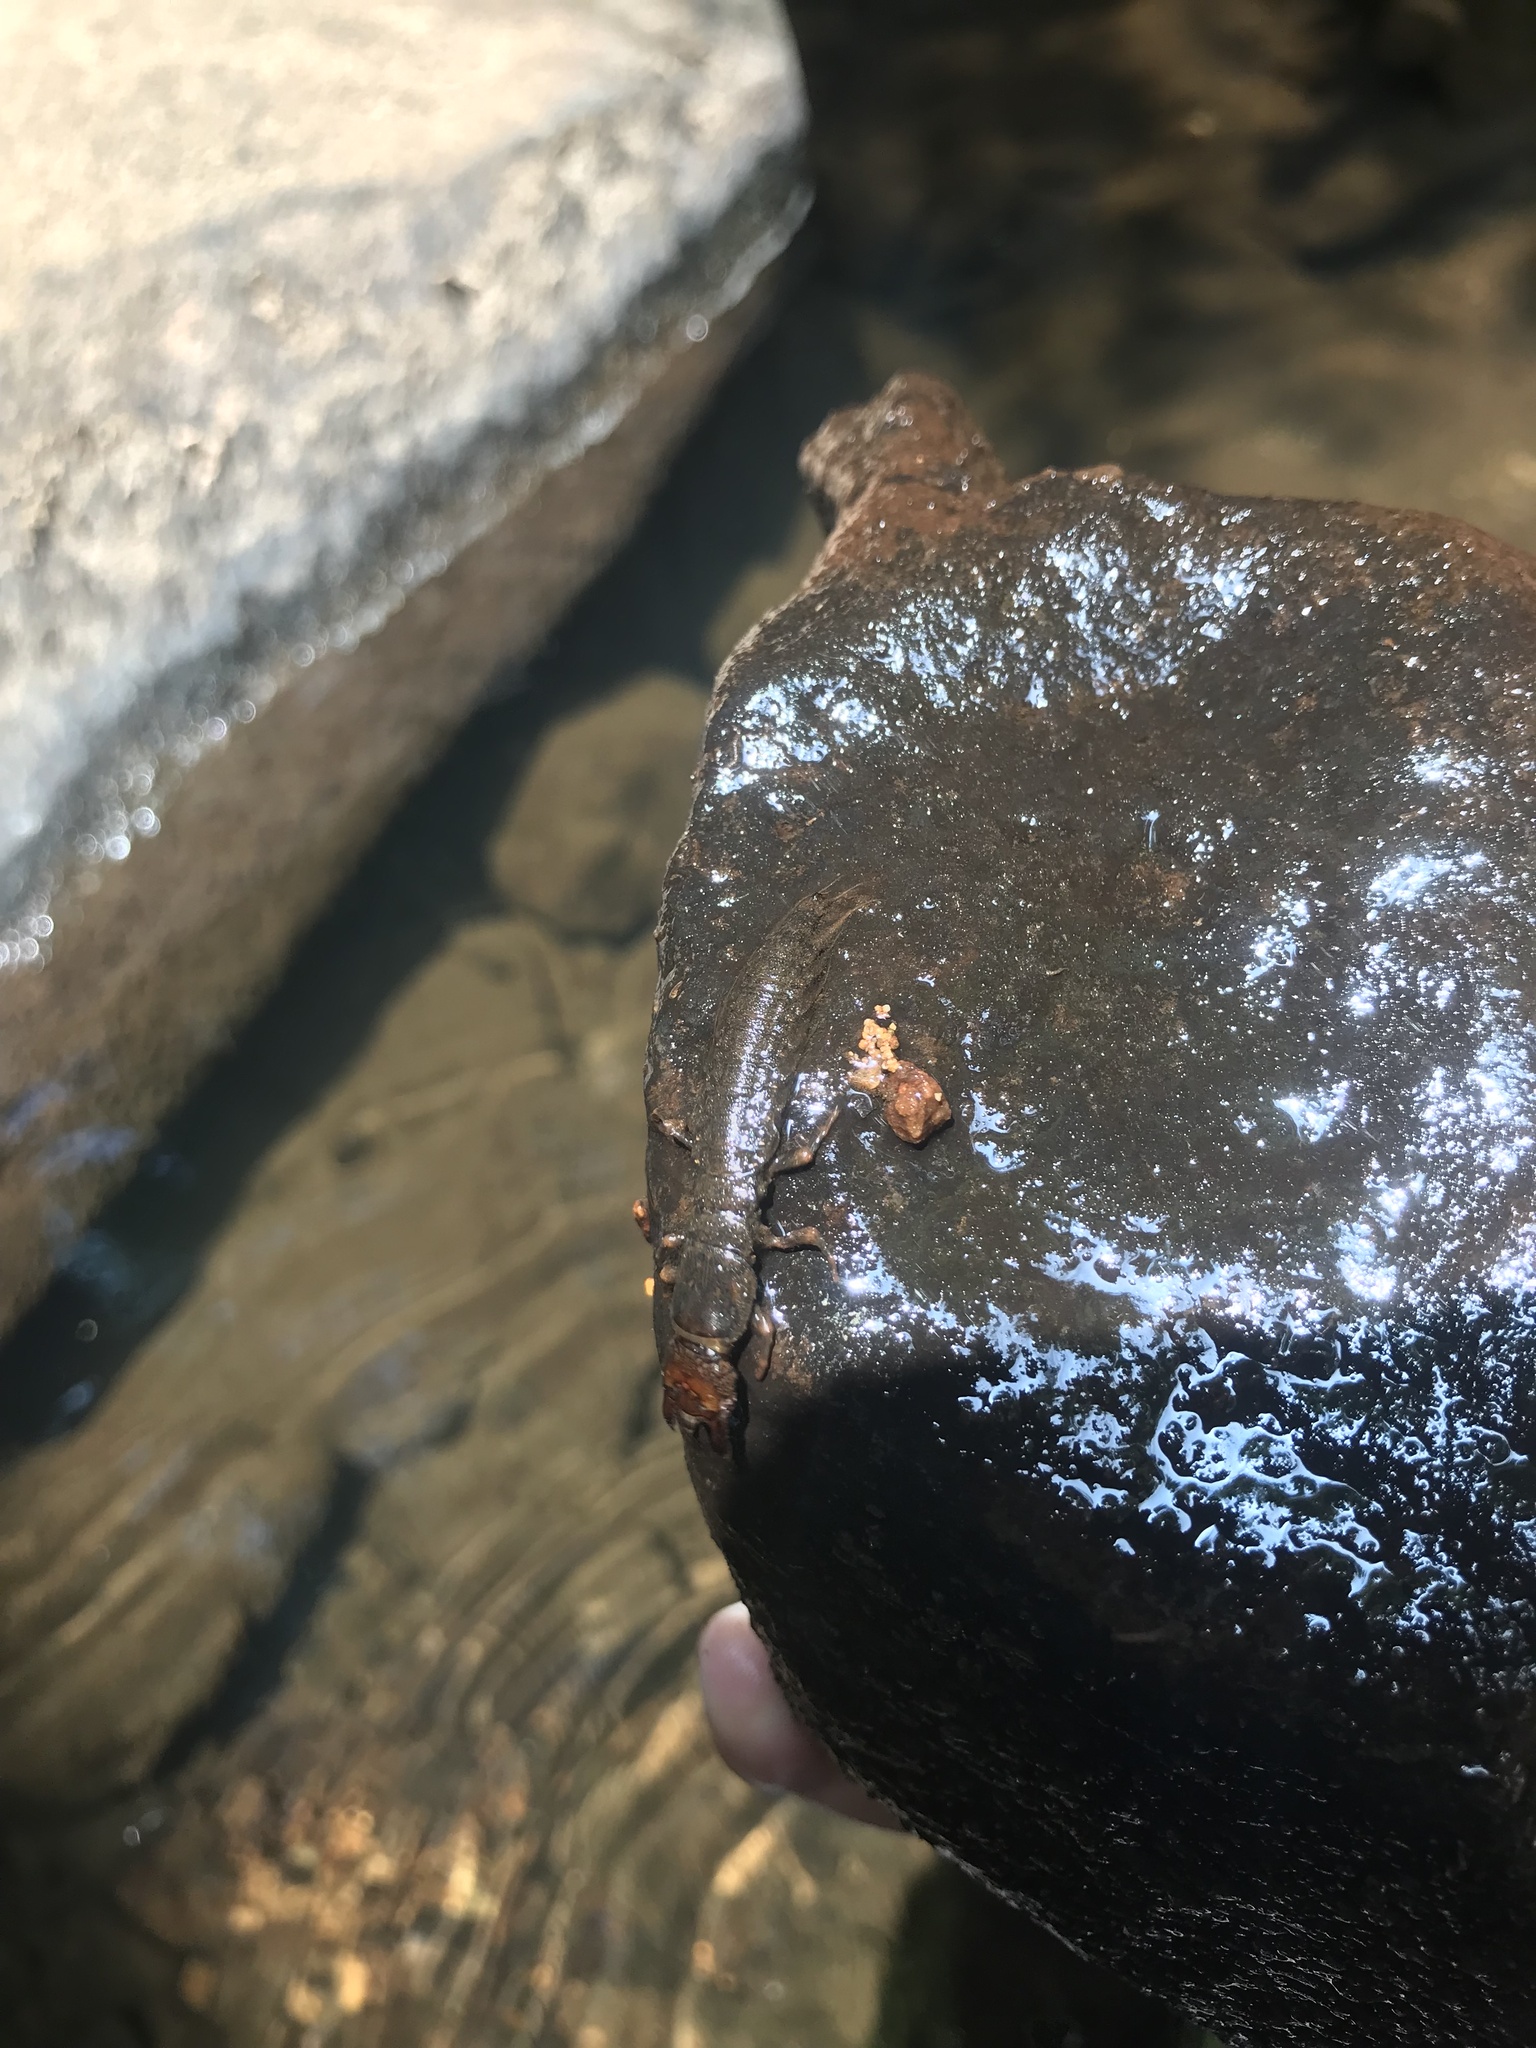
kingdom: Animalia
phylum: Arthropoda
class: Insecta
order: Megaloptera
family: Corydalidae
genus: Corydalus
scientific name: Corydalus cornutus
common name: Dobsonfly
